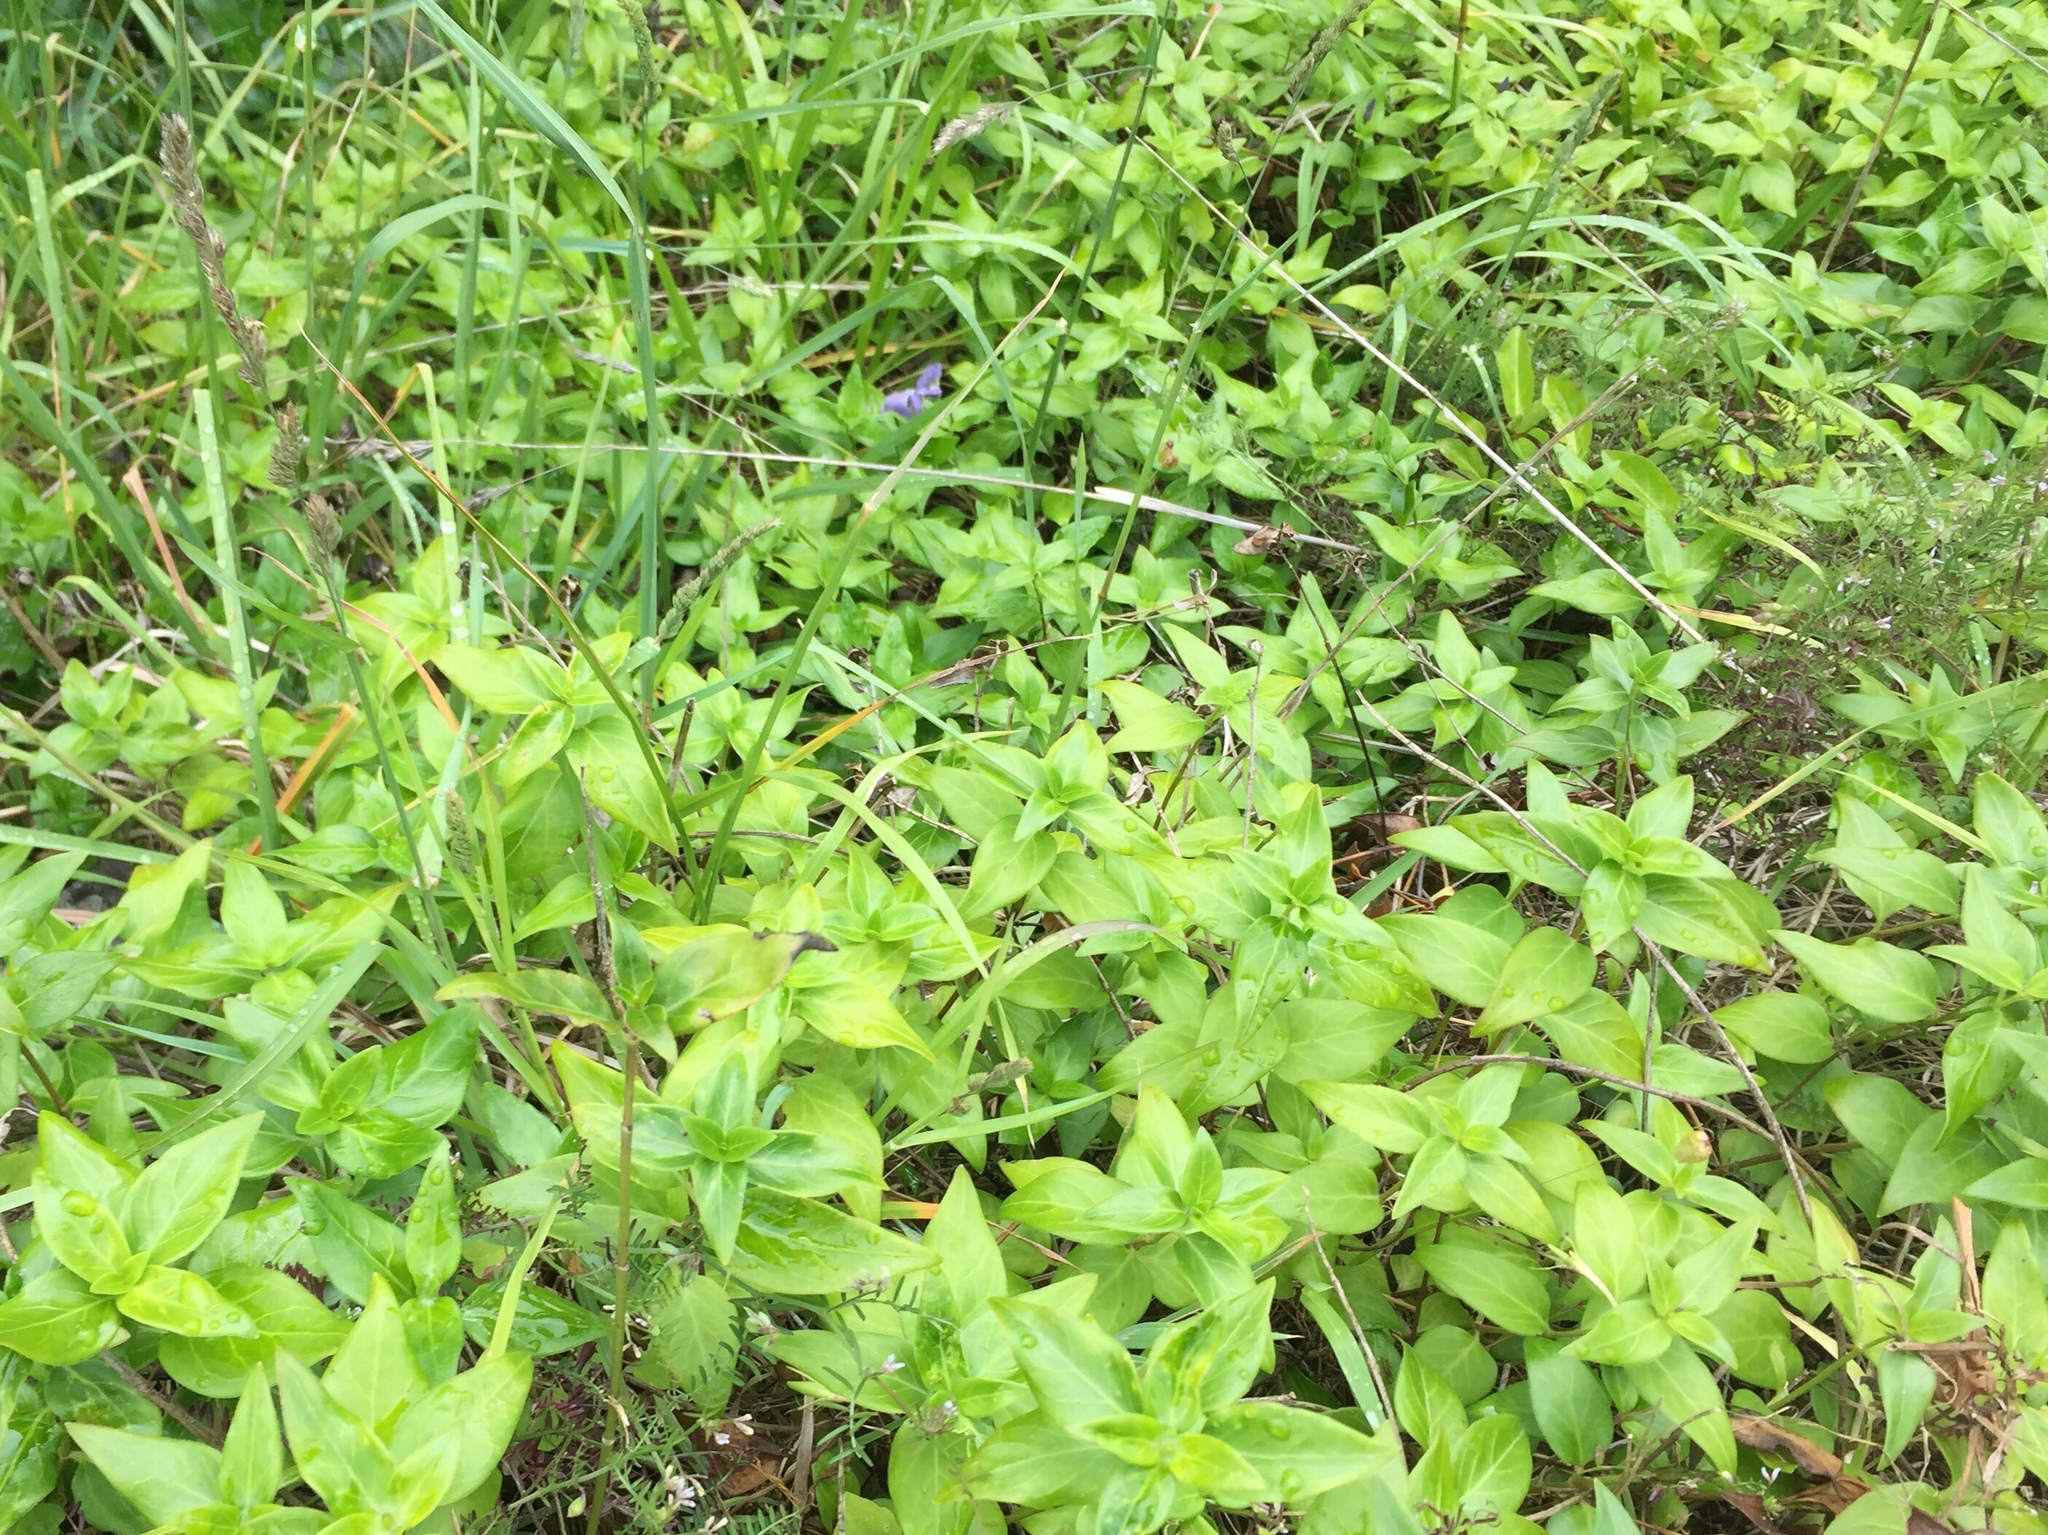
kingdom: Plantae
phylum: Tracheophyta
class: Magnoliopsida
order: Gentianales
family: Apocynaceae
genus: Vinca
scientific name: Vinca major
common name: Greater periwinkle
